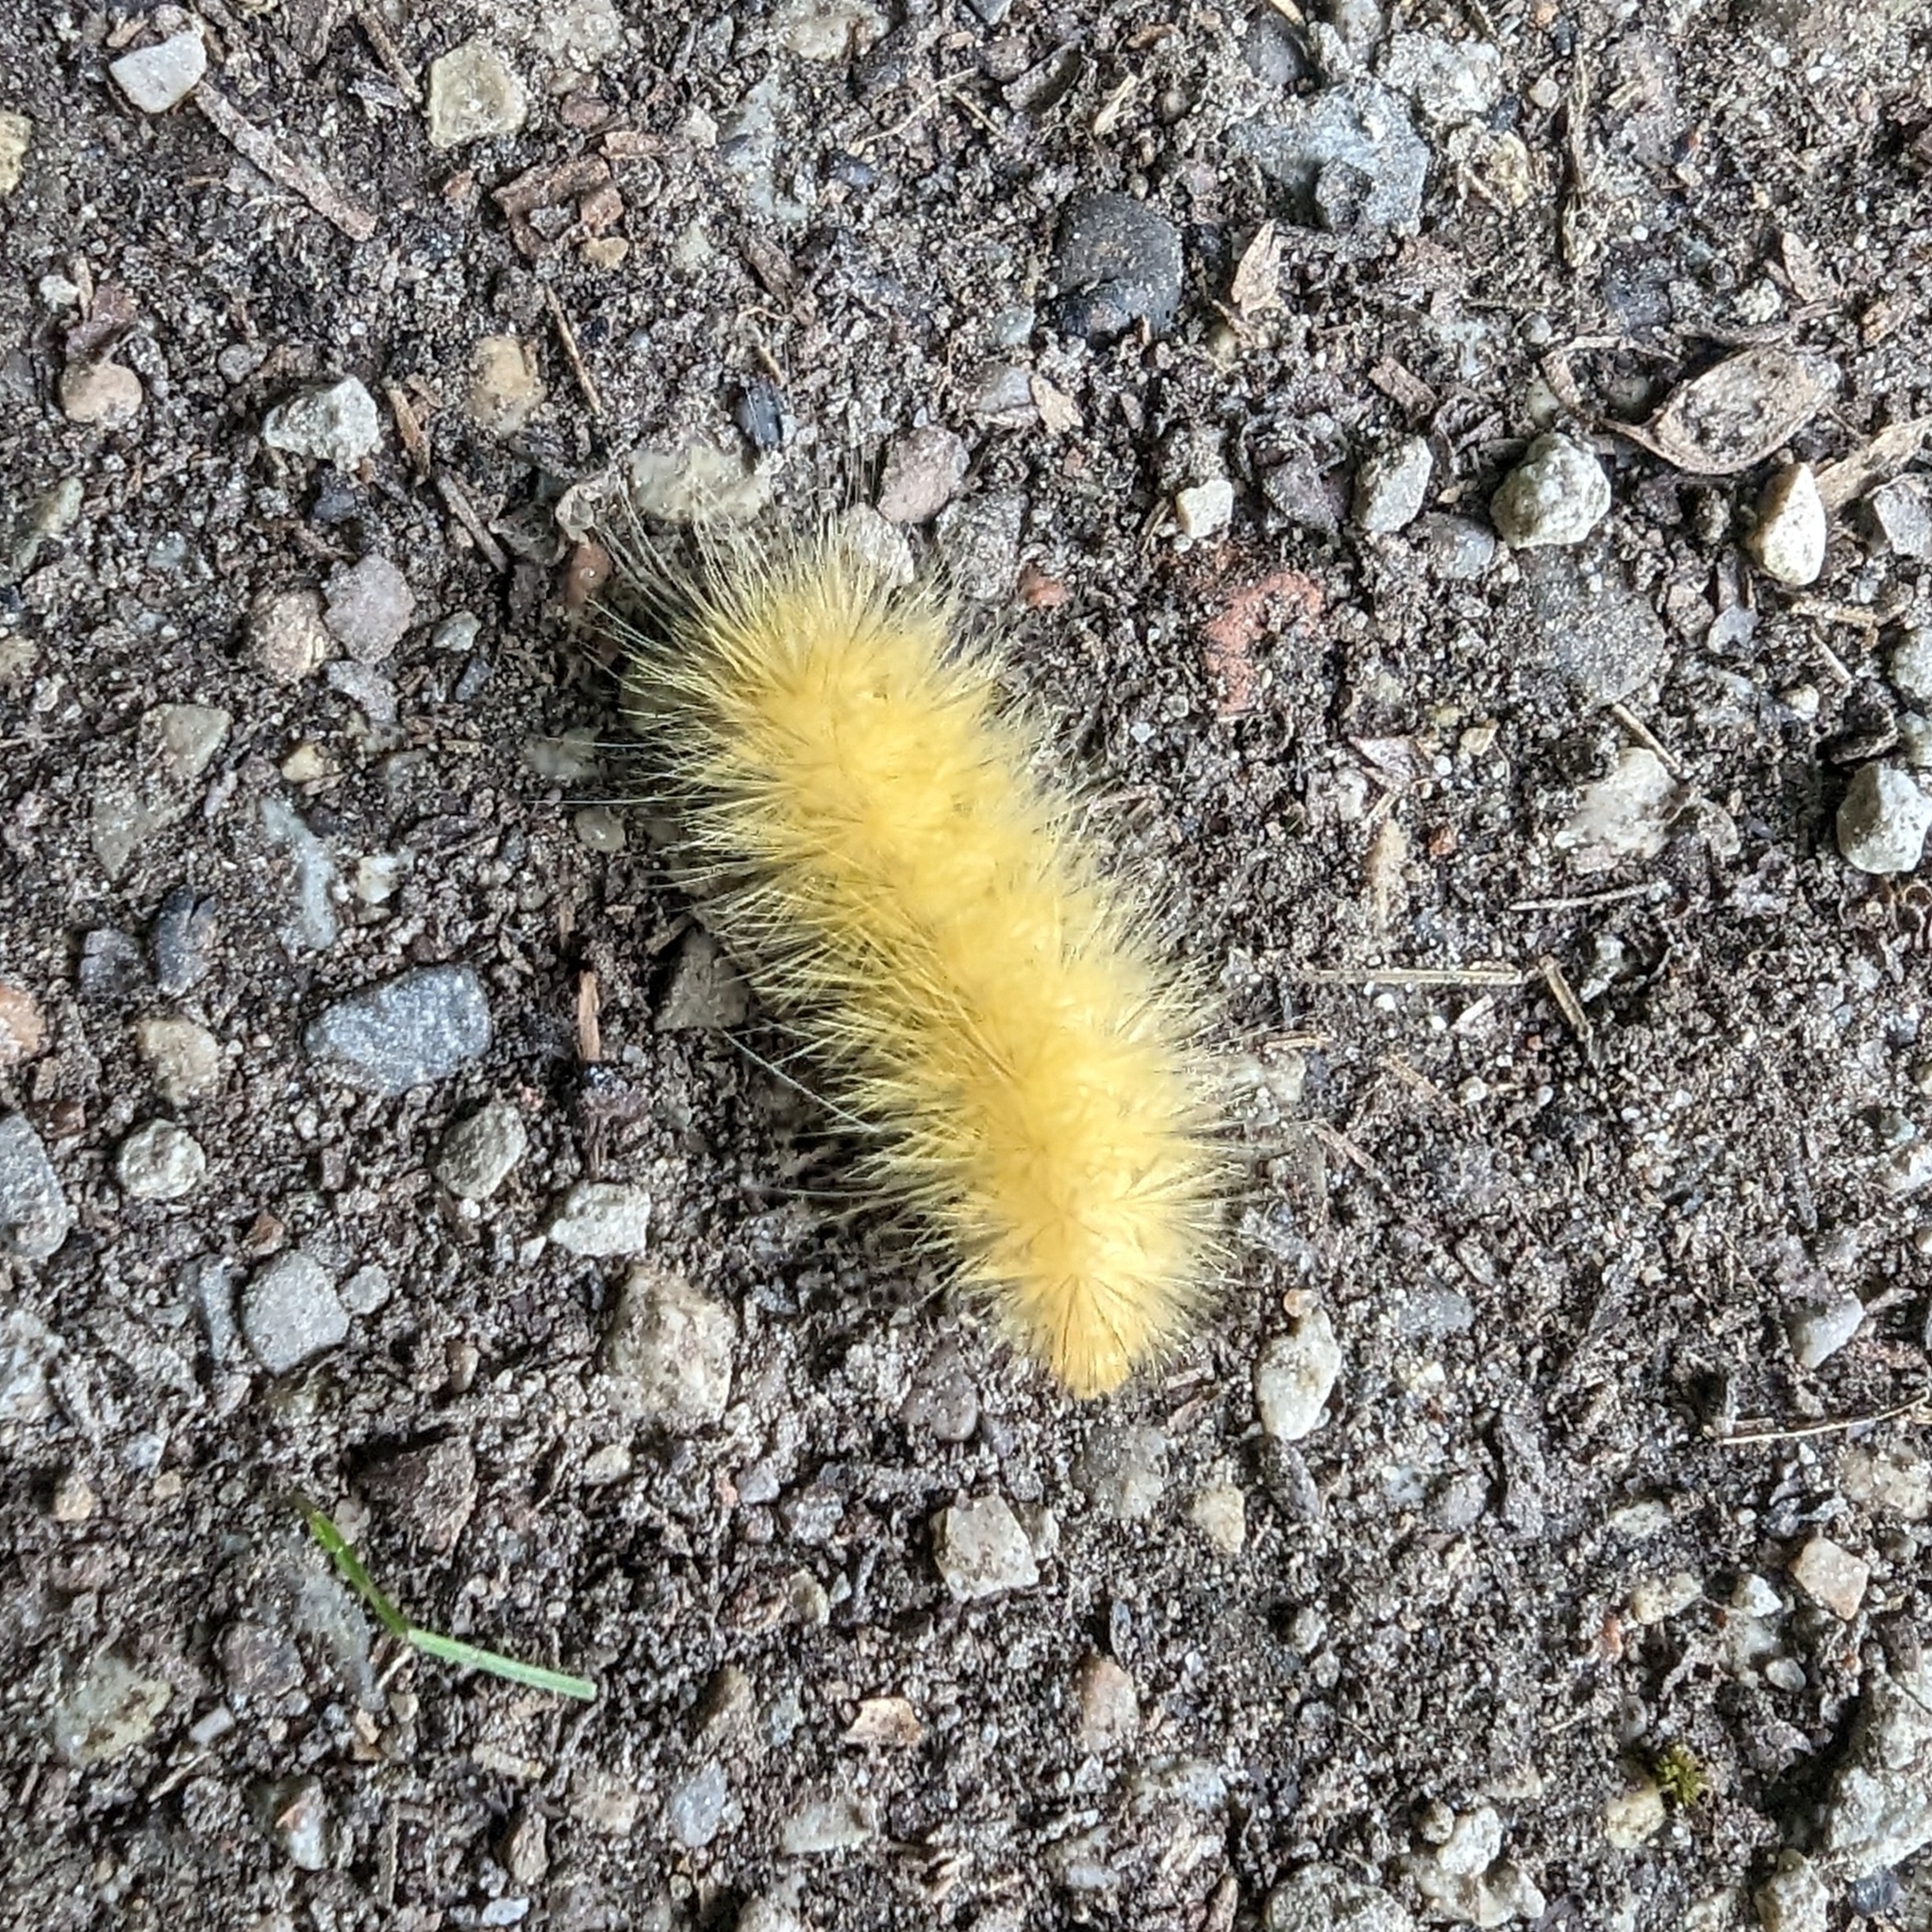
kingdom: Animalia
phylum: Arthropoda
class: Insecta
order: Lepidoptera
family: Erebidae
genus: Spilosoma
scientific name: Spilosoma virginica
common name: Virginia tiger moth
